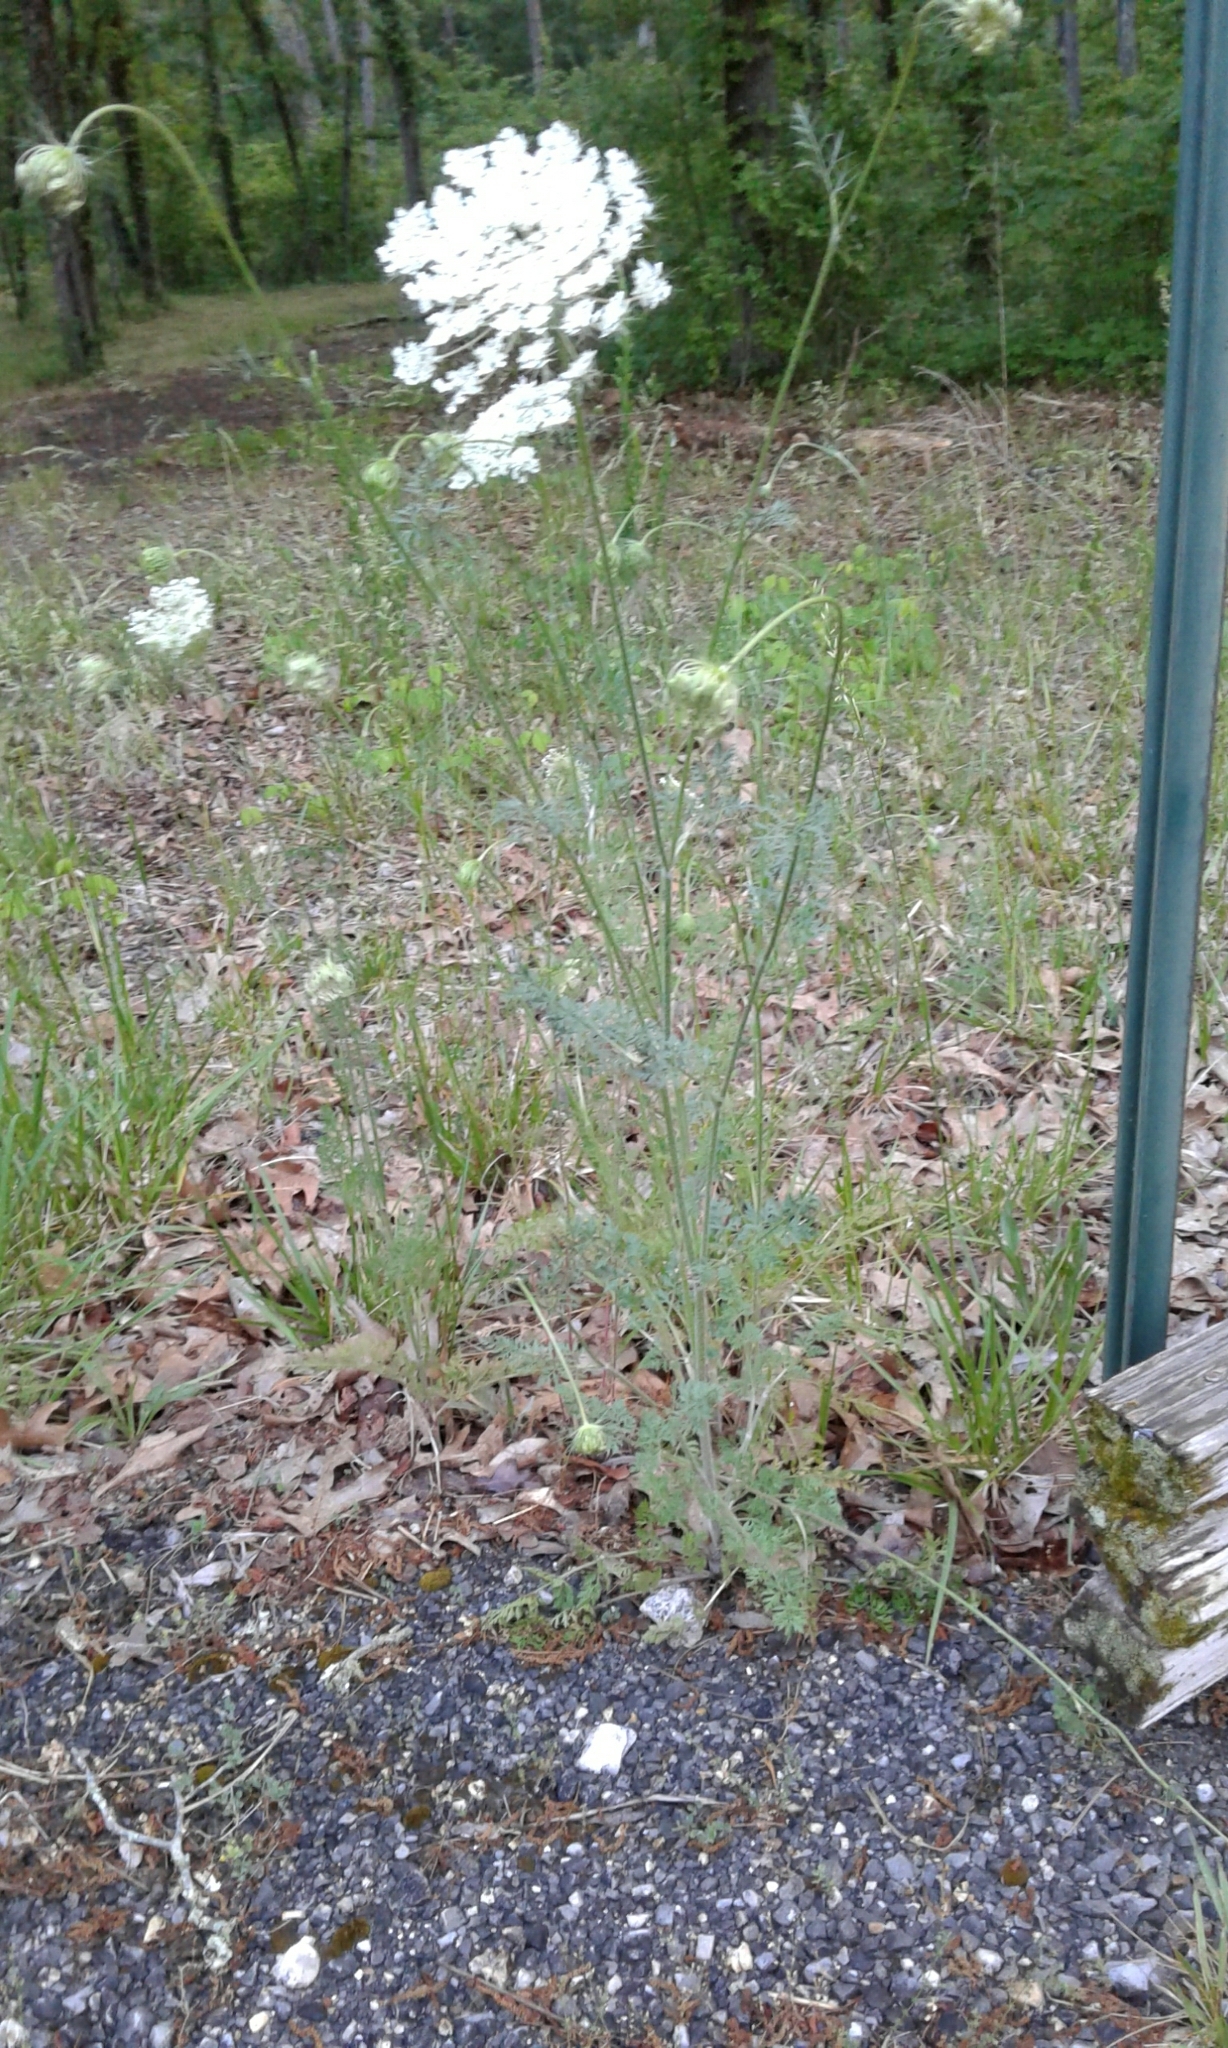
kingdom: Plantae
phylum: Tracheophyta
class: Magnoliopsida
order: Apiales
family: Apiaceae
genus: Daucus
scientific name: Daucus carota
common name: Wild carrot
